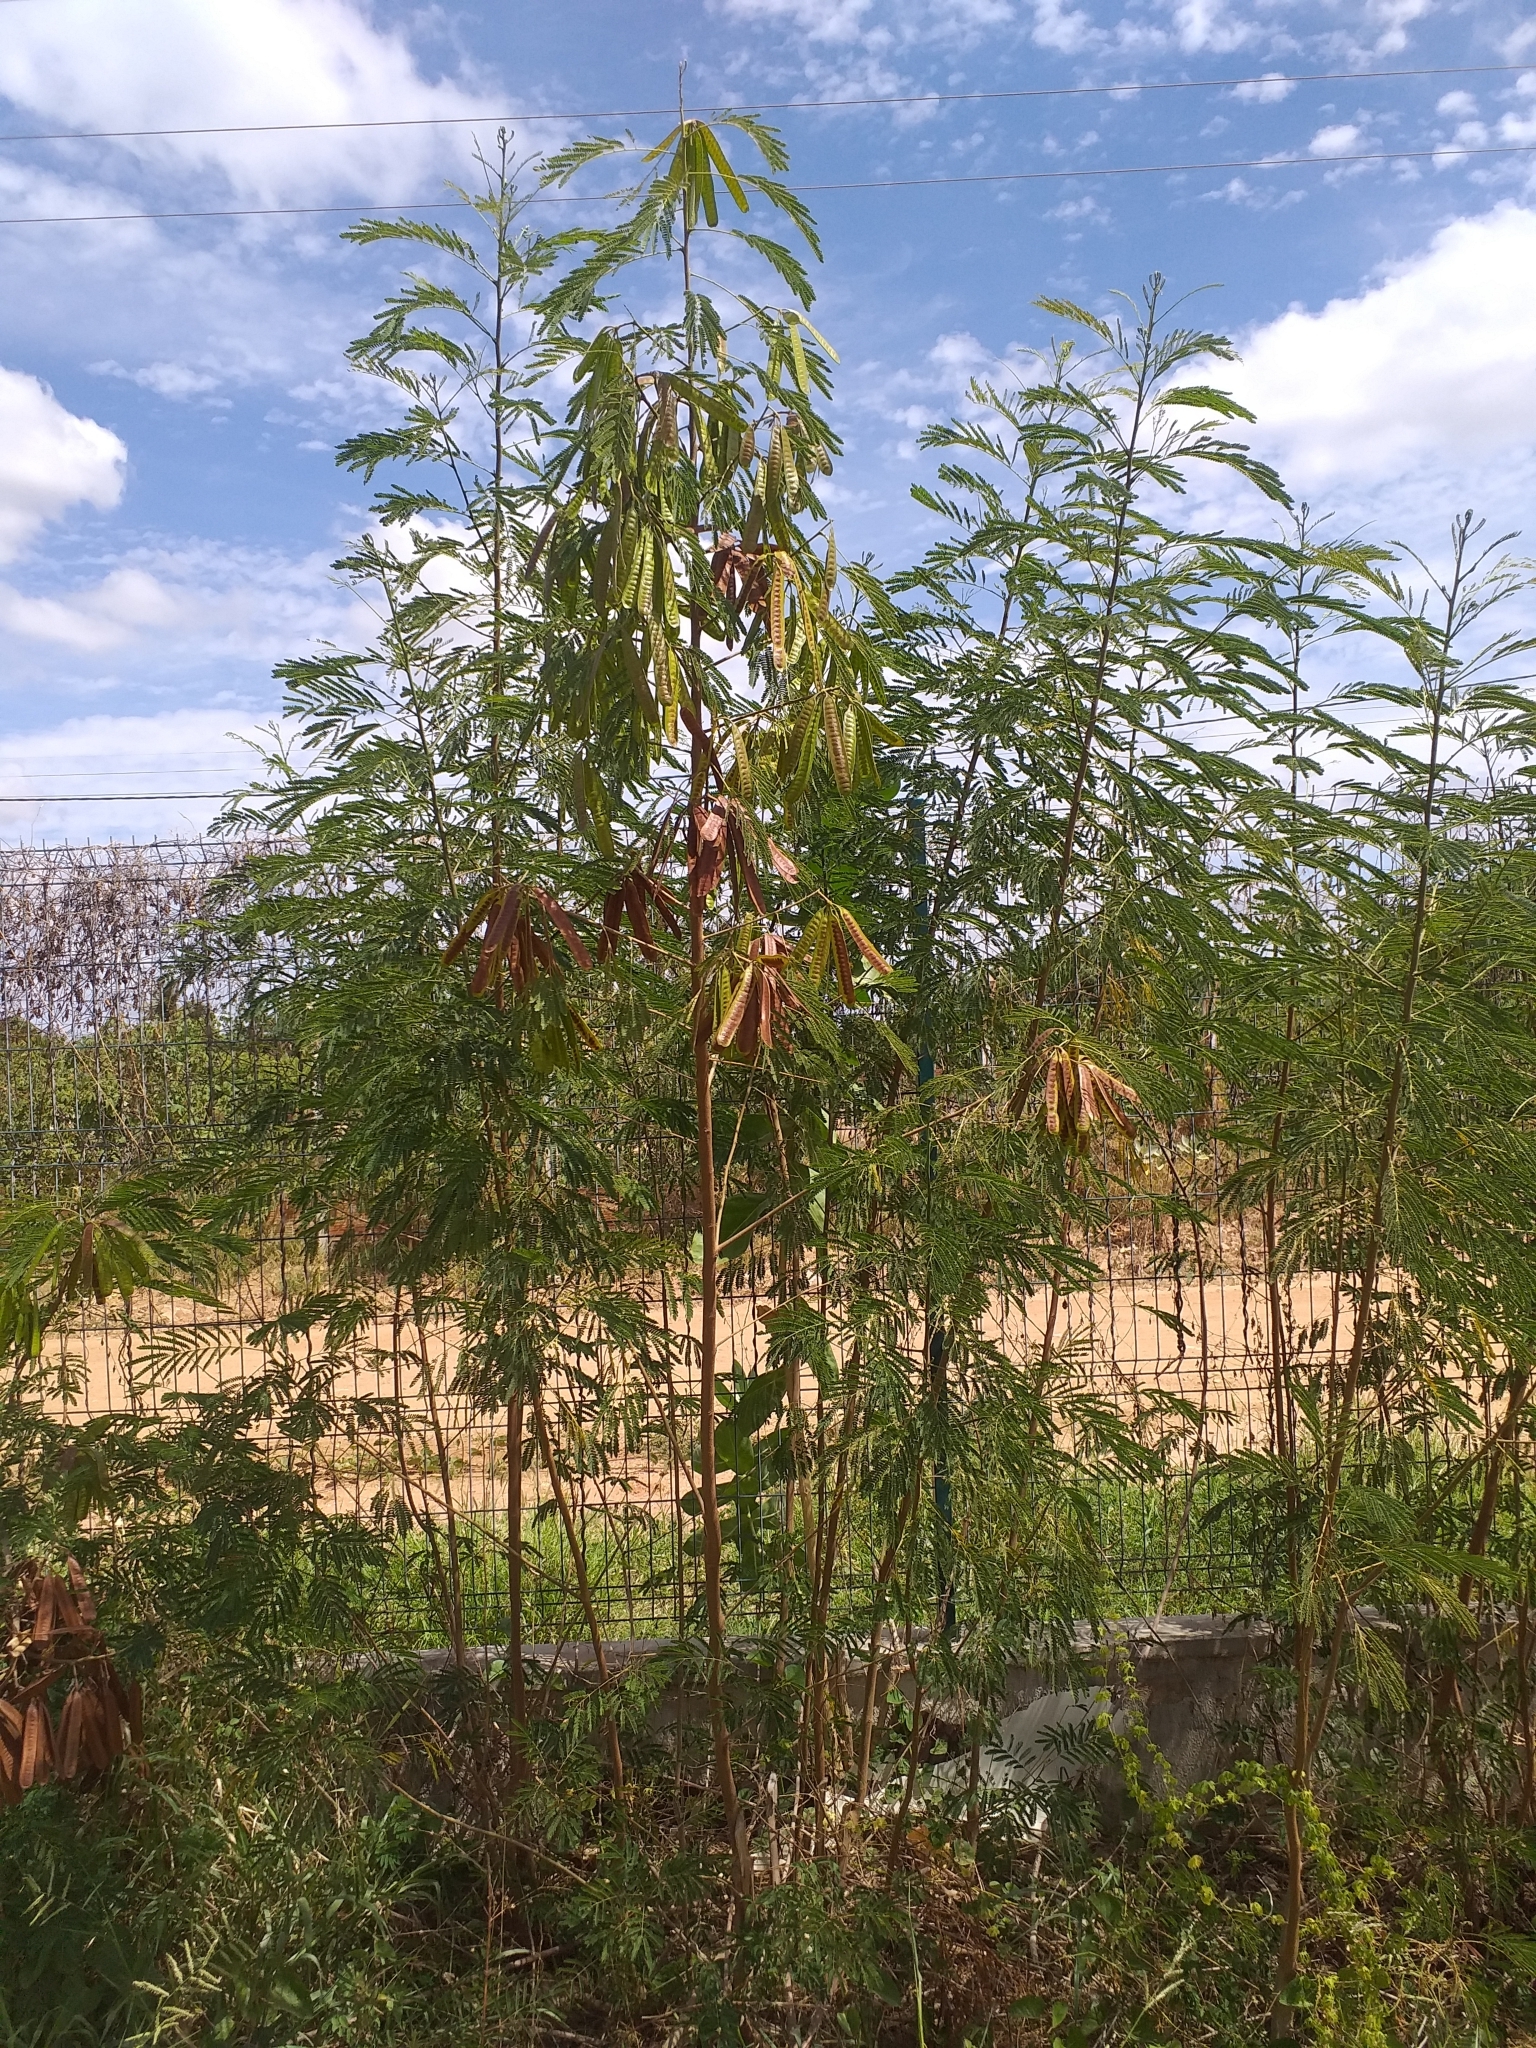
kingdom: Plantae
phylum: Tracheophyta
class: Magnoliopsida
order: Fabales
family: Fabaceae
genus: Leucaena
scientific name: Leucaena leucocephala
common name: White leadtree
